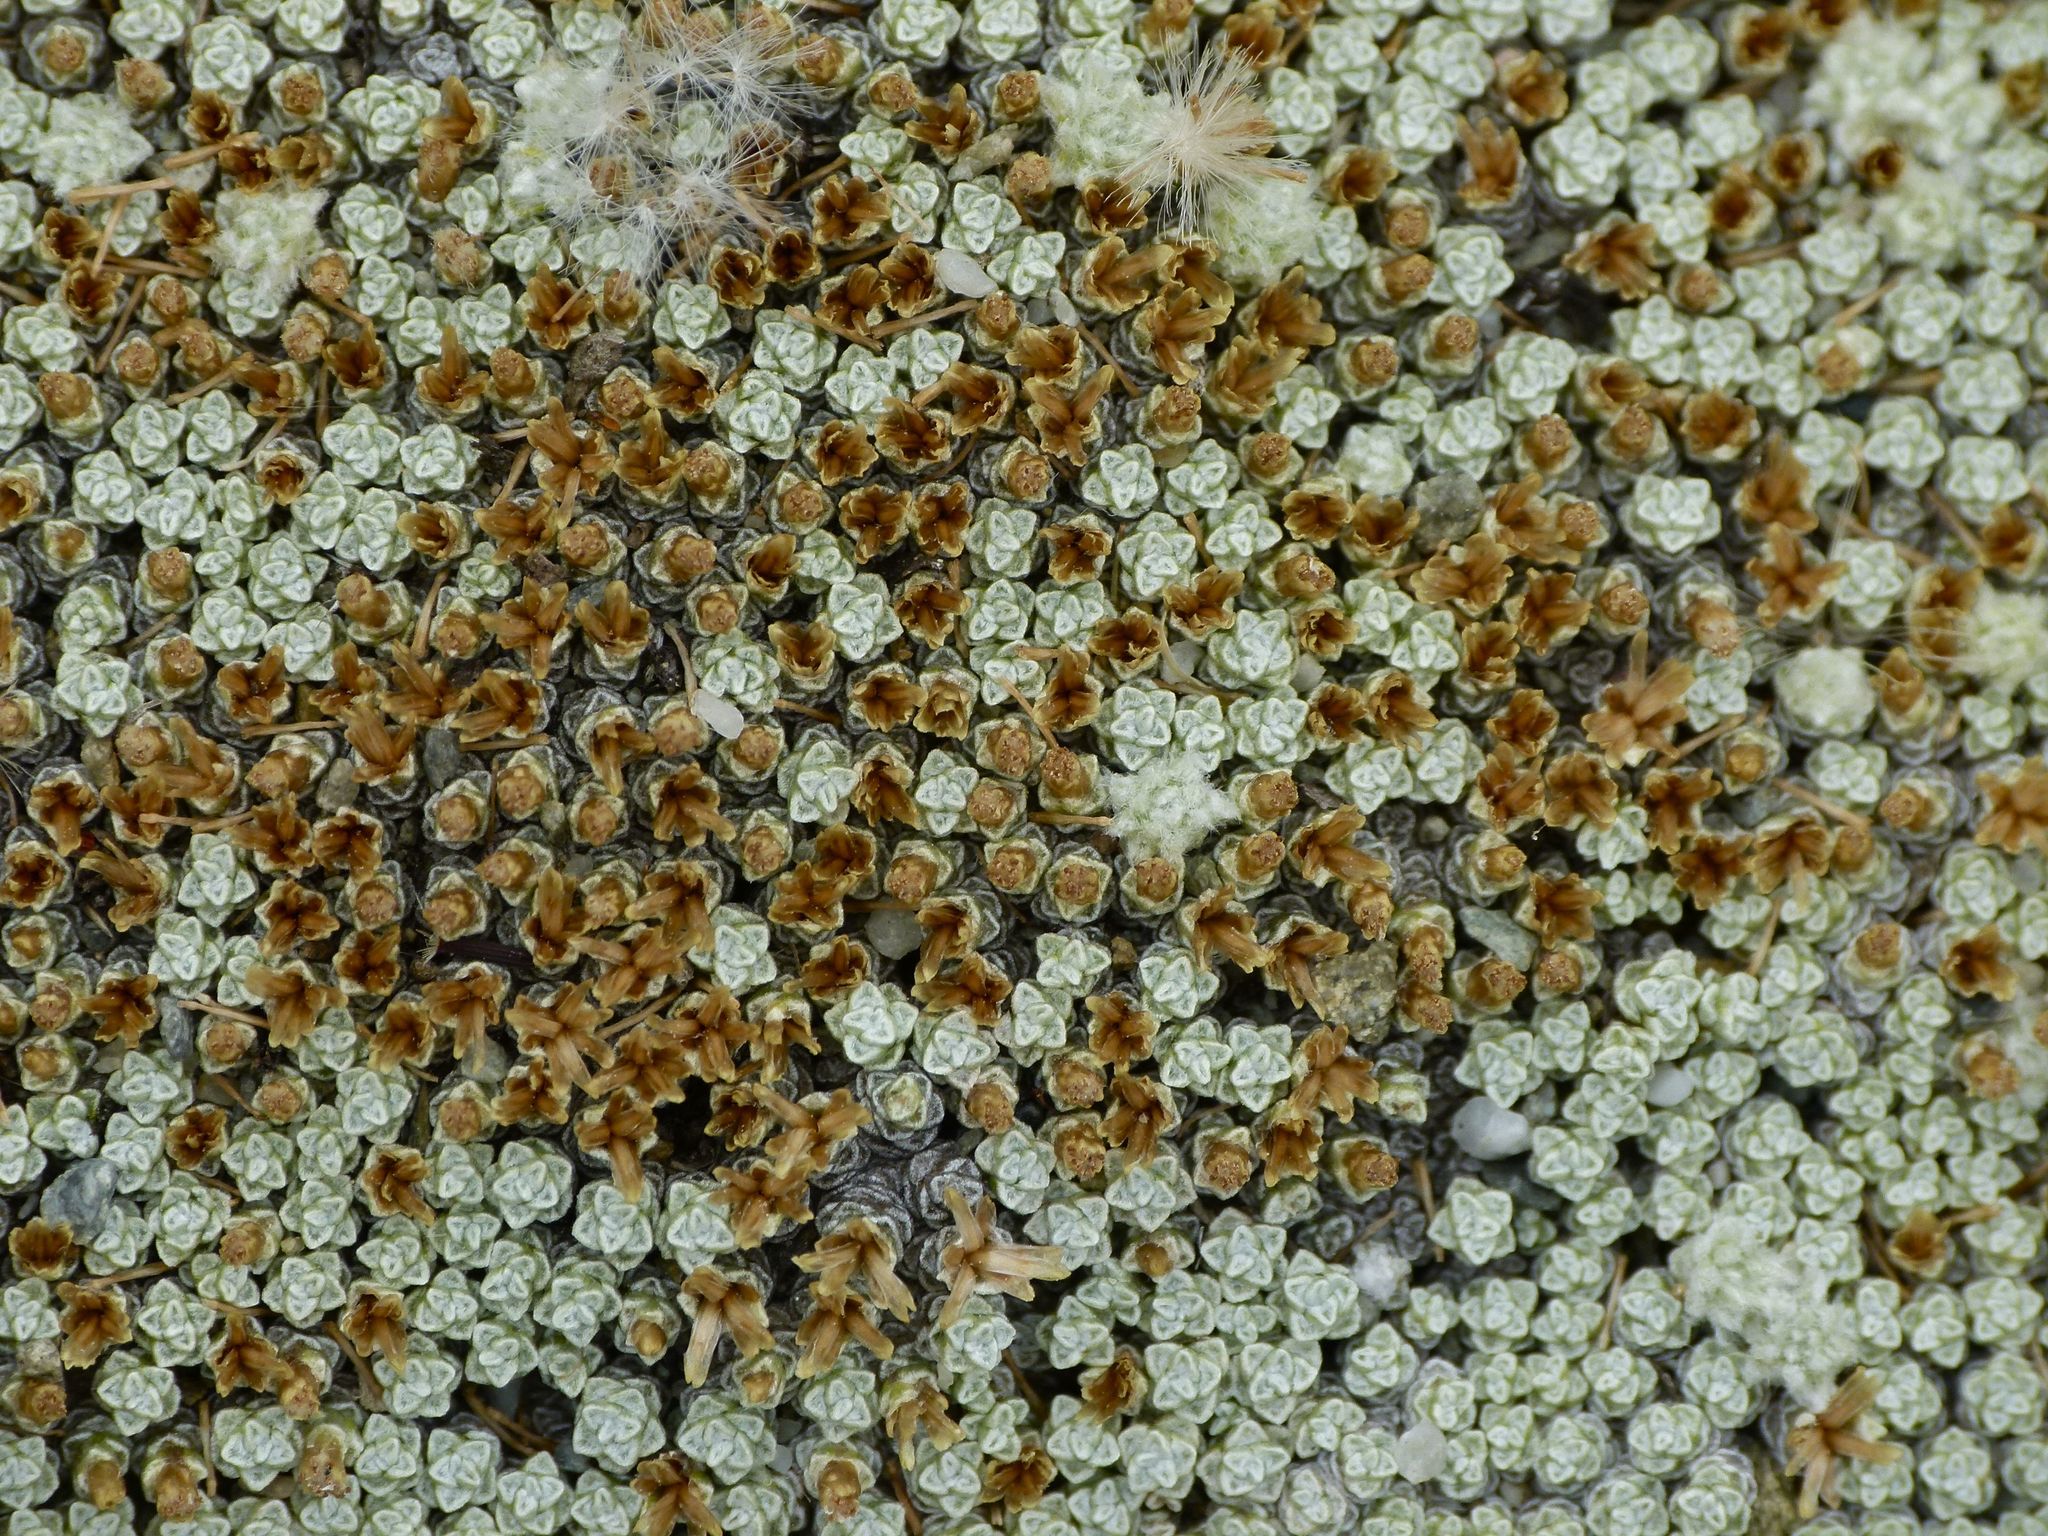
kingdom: Plantae
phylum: Tracheophyta
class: Magnoliopsida
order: Asterales
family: Asteraceae
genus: Raoulia
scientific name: Raoulia australis
